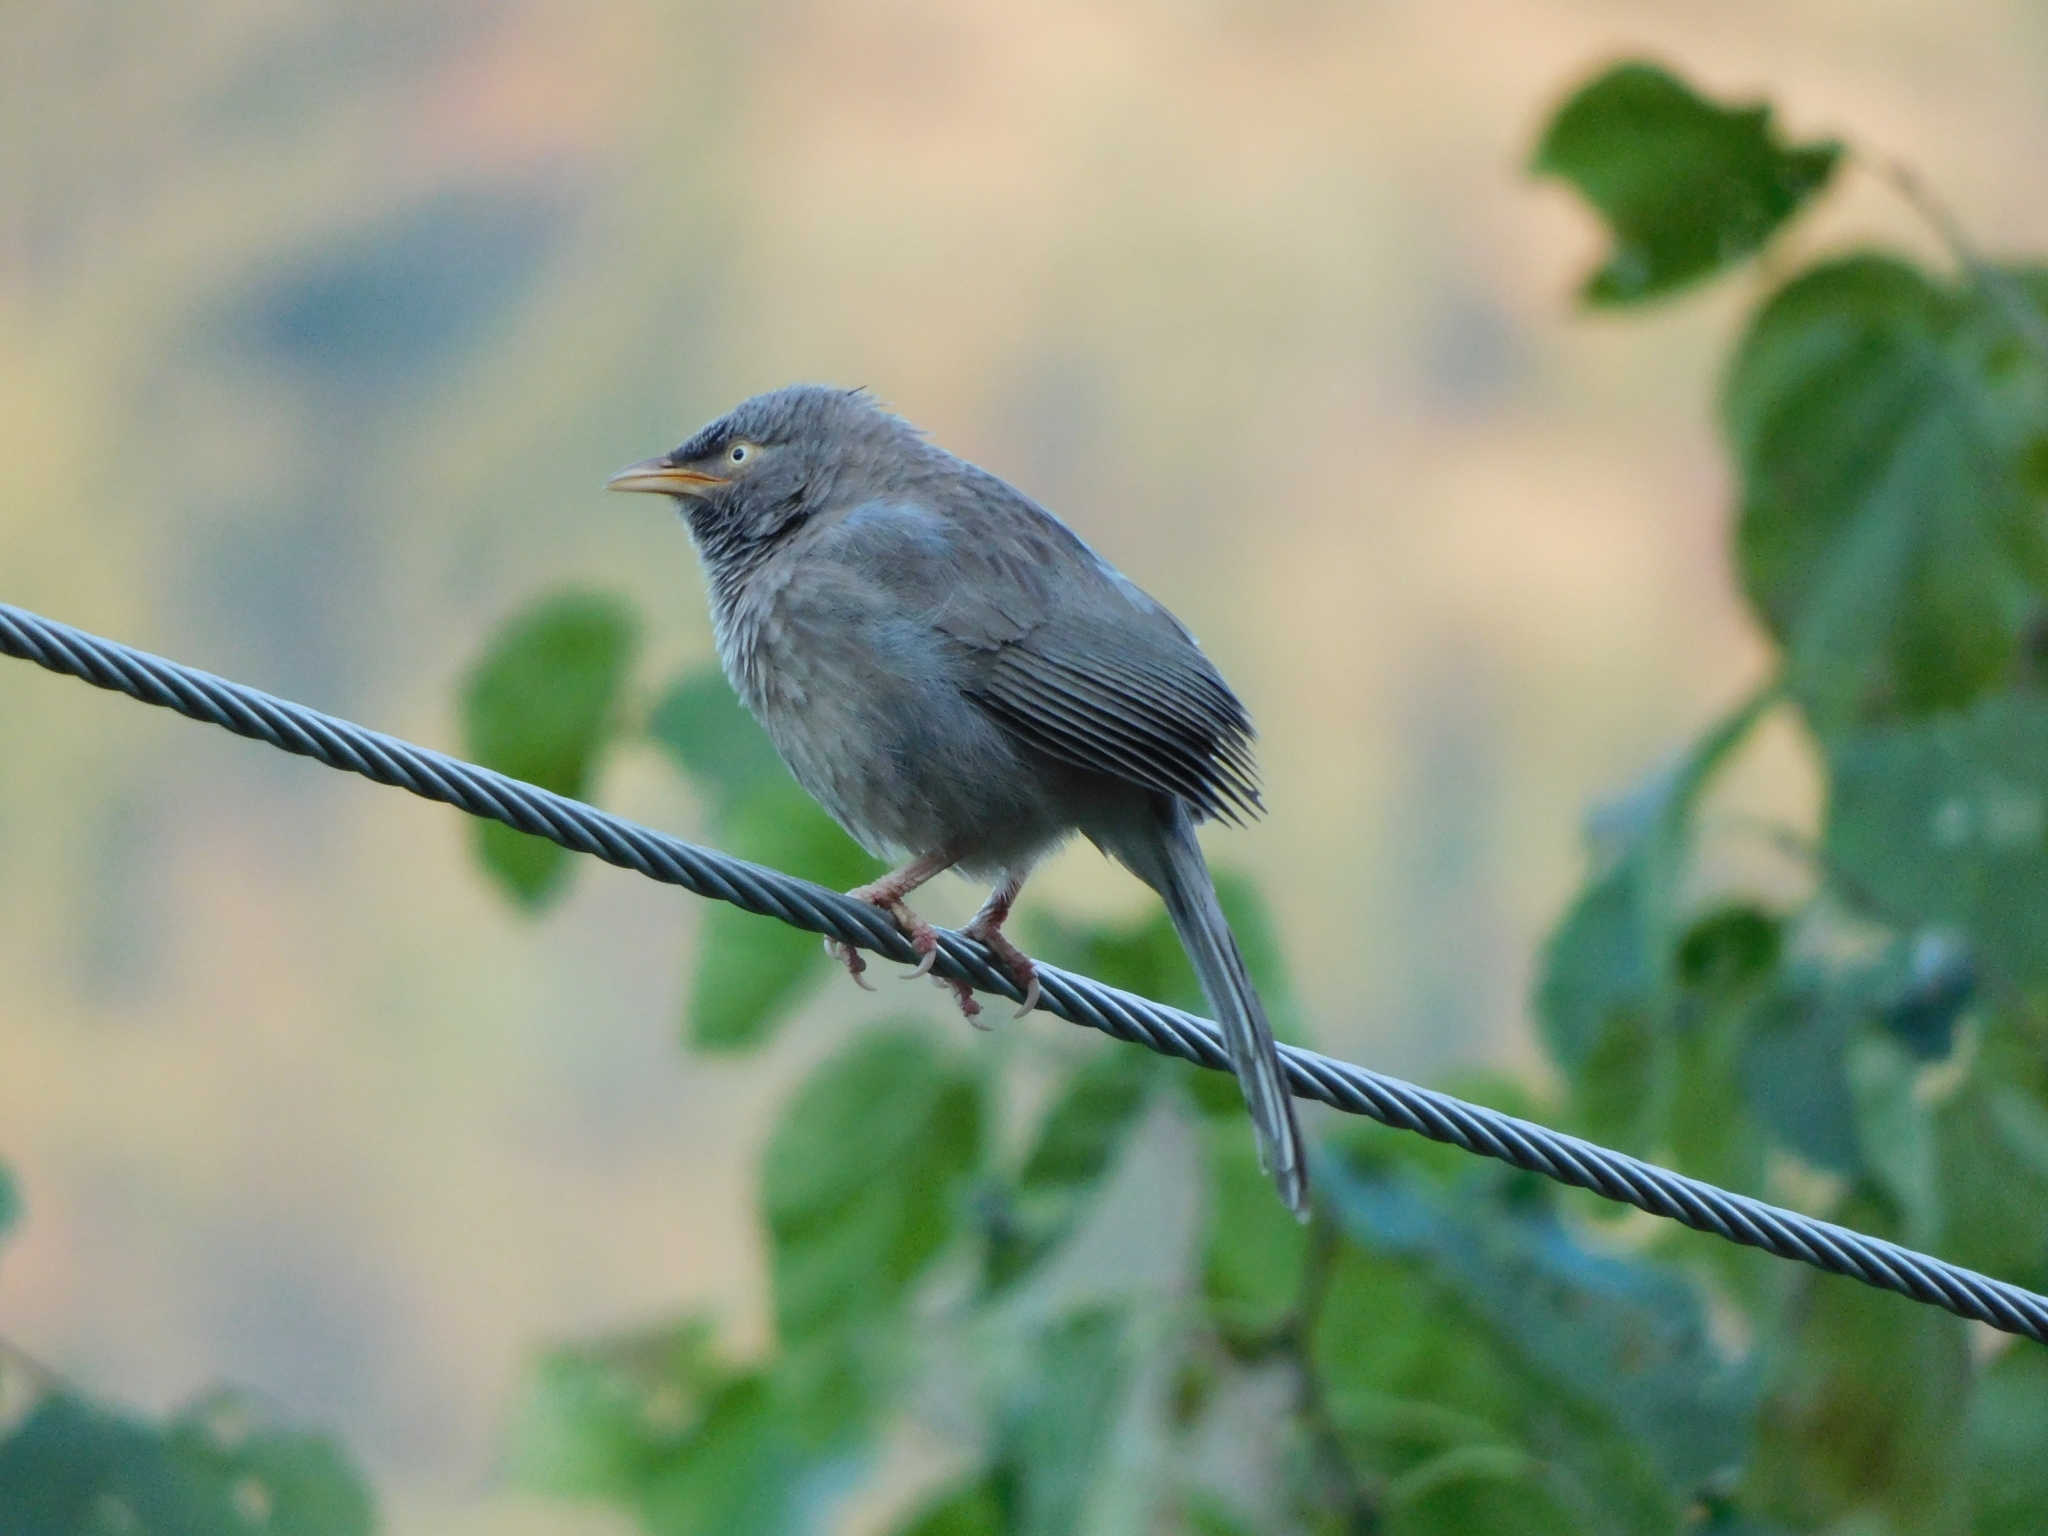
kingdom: Animalia
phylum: Chordata
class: Aves
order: Passeriformes
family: Leiothrichidae
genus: Turdoides
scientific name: Turdoides striata
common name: Jungle babbler
